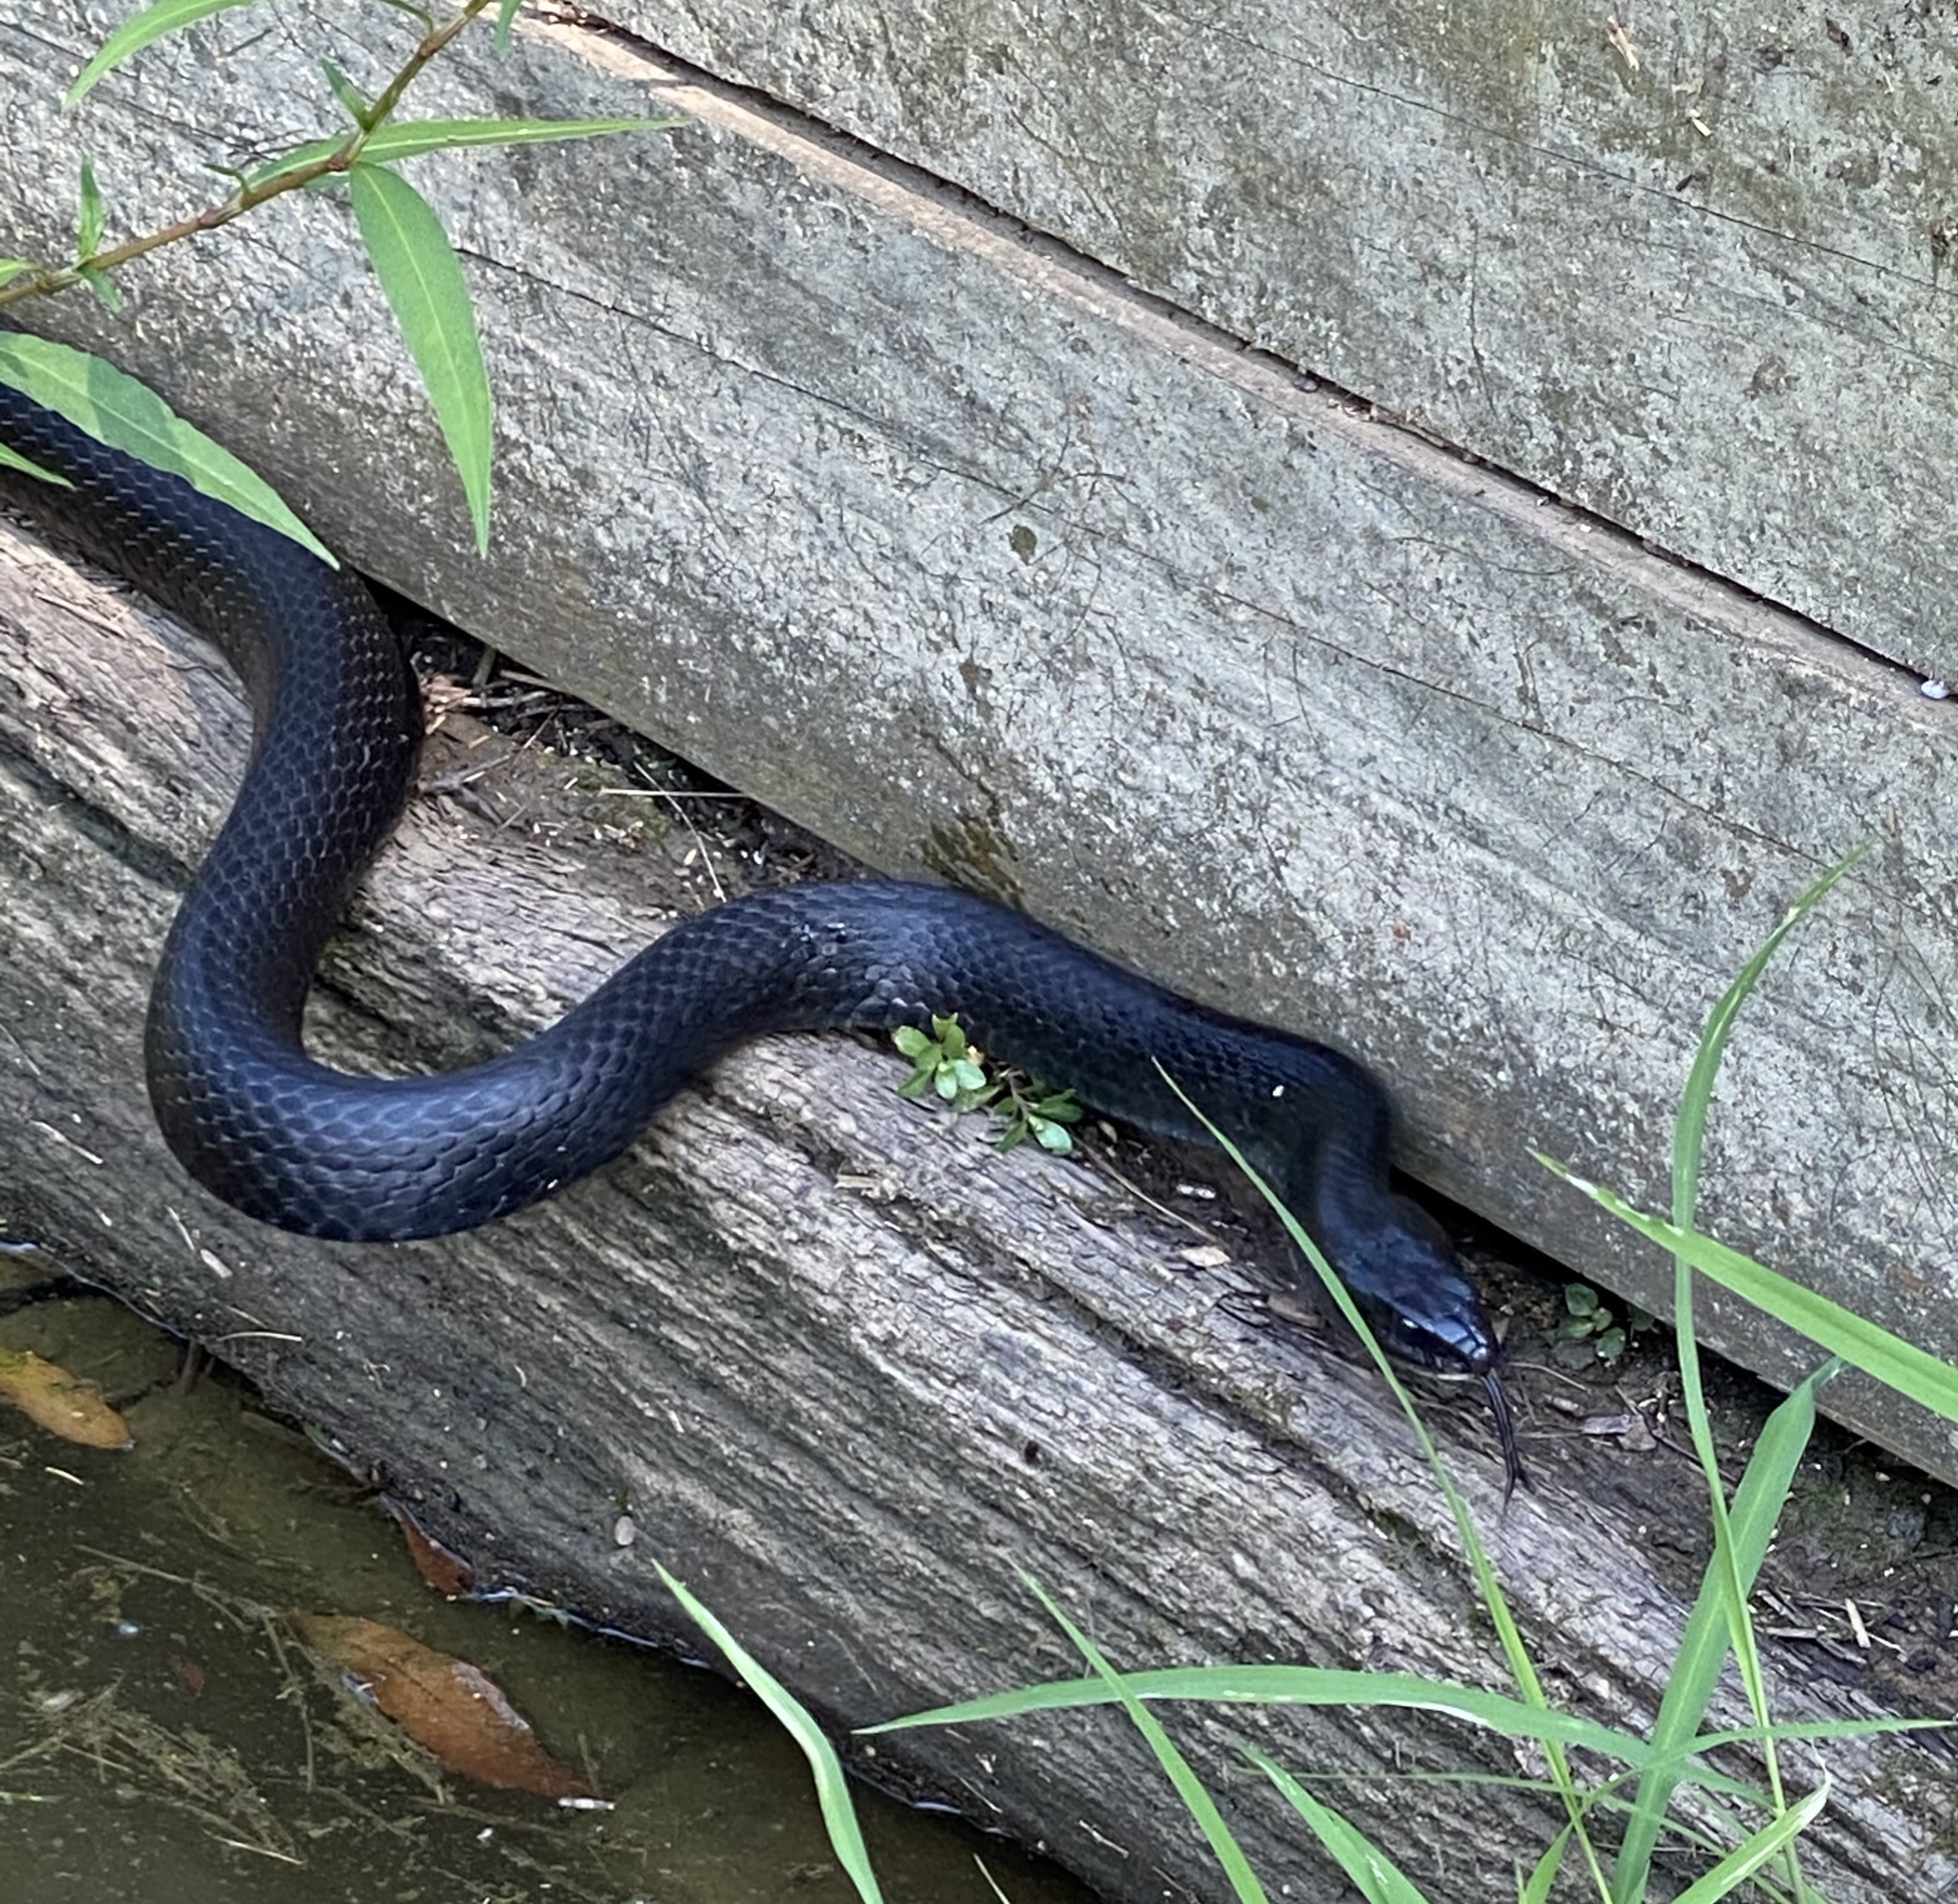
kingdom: Animalia
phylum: Chordata
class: Squamata
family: Colubridae
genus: Coluber
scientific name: Coluber constrictor
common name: Eastern racer
